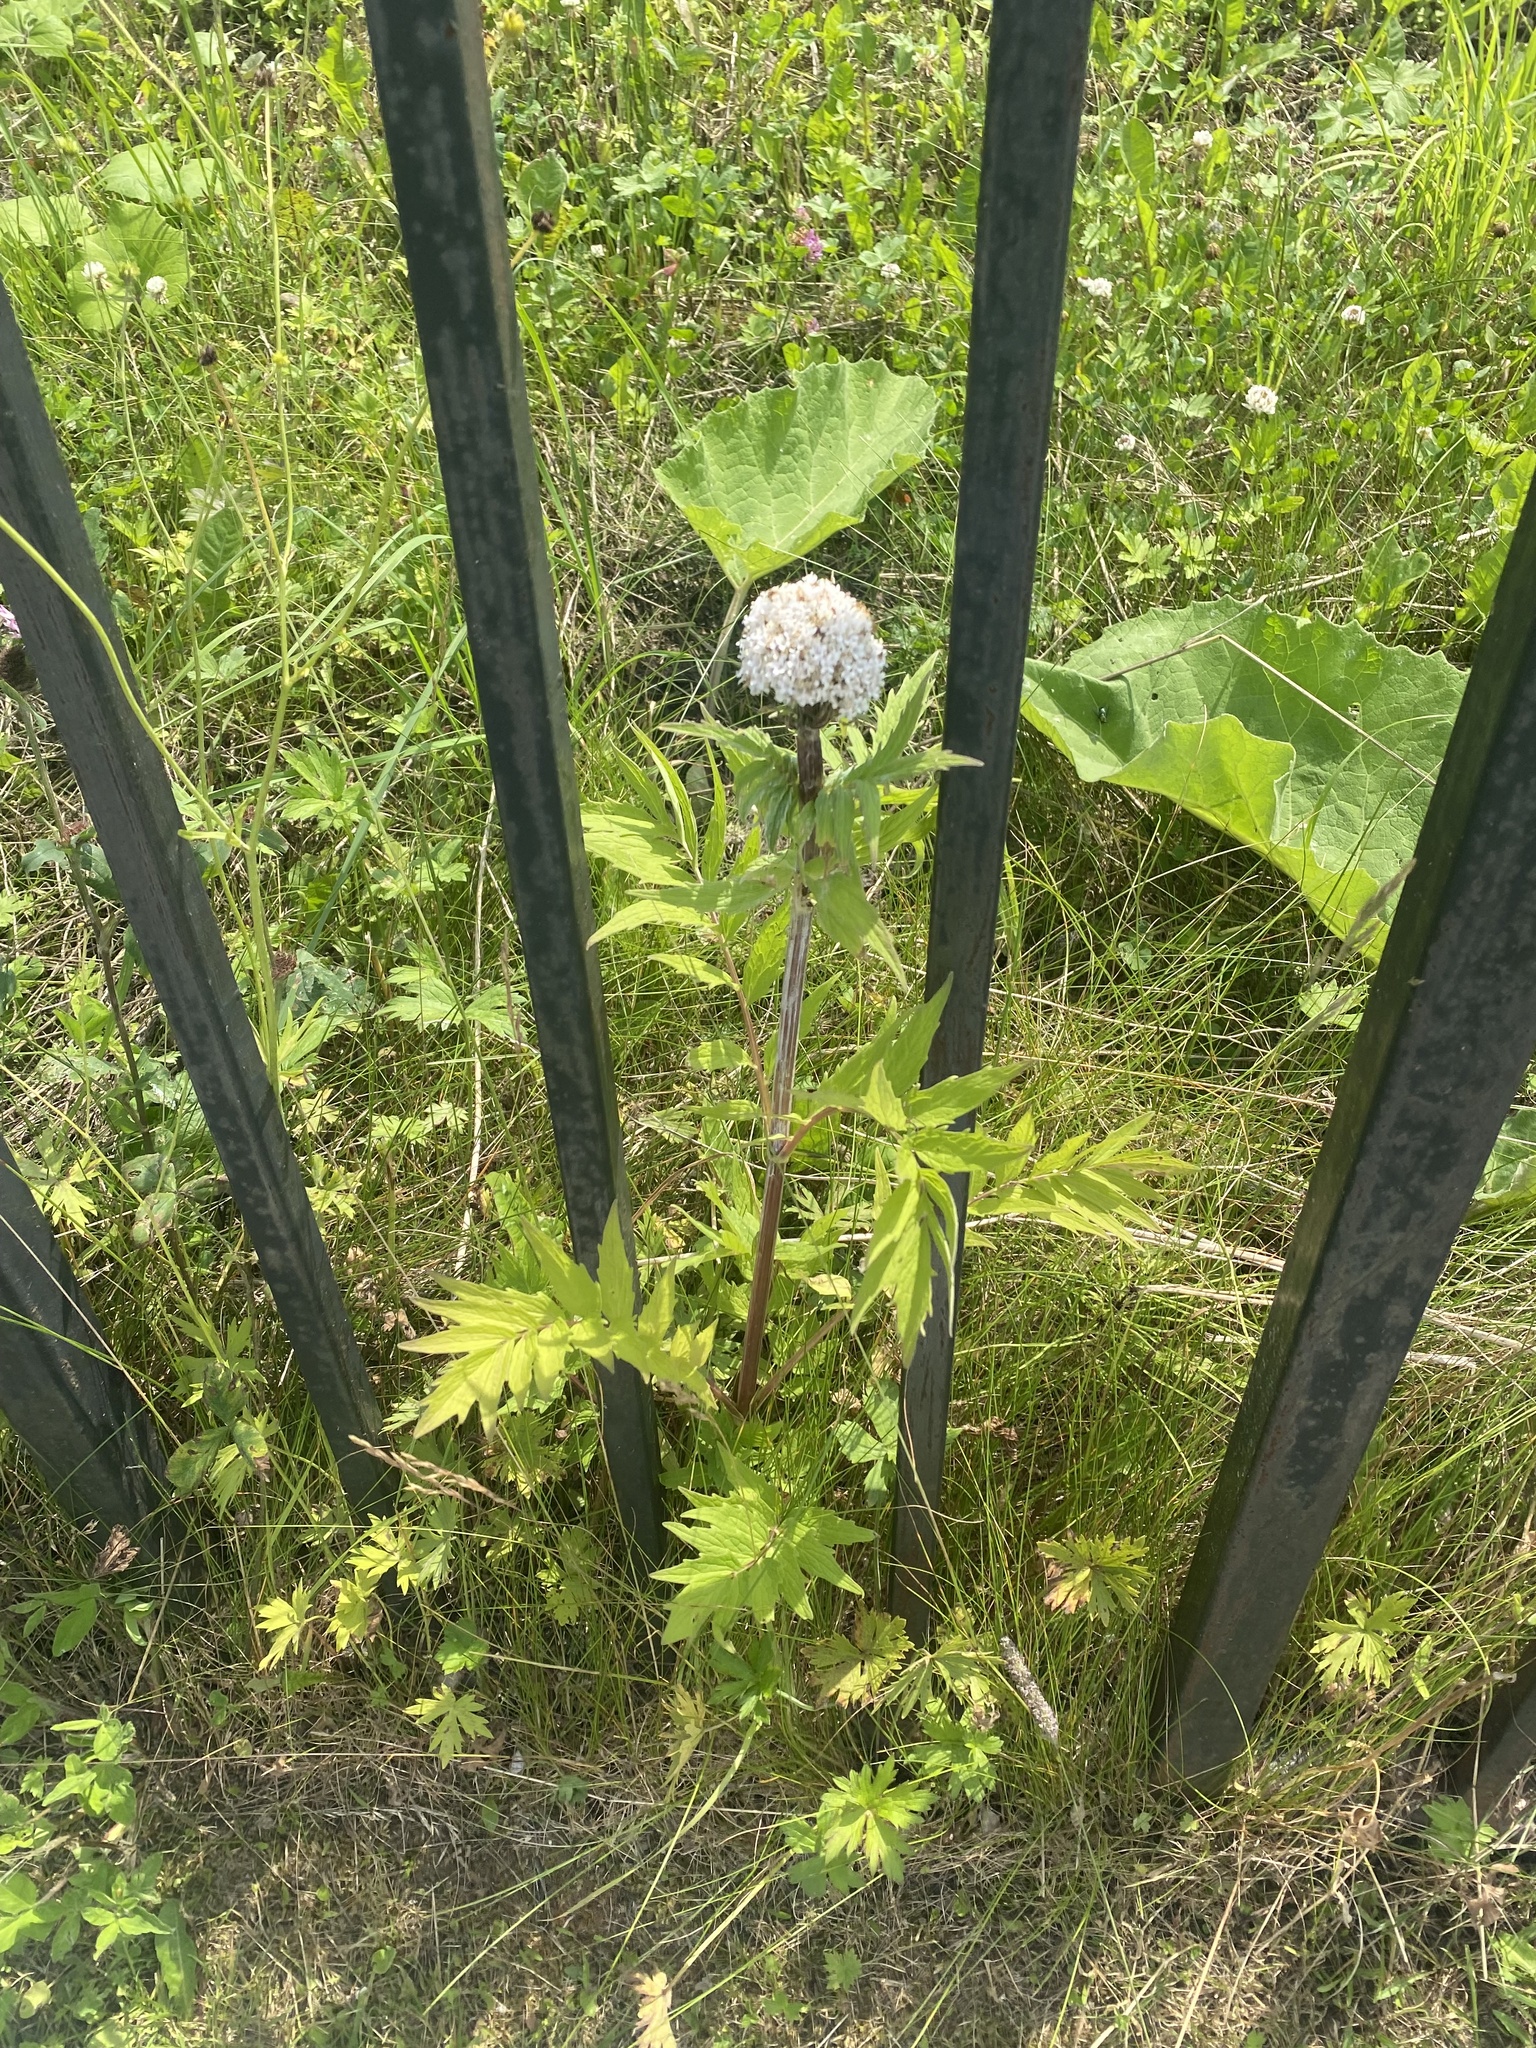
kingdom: Plantae
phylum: Tracheophyta
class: Magnoliopsida
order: Dipsacales
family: Caprifoliaceae
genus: Valeriana
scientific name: Valeriana officinalis
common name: Common valerian
